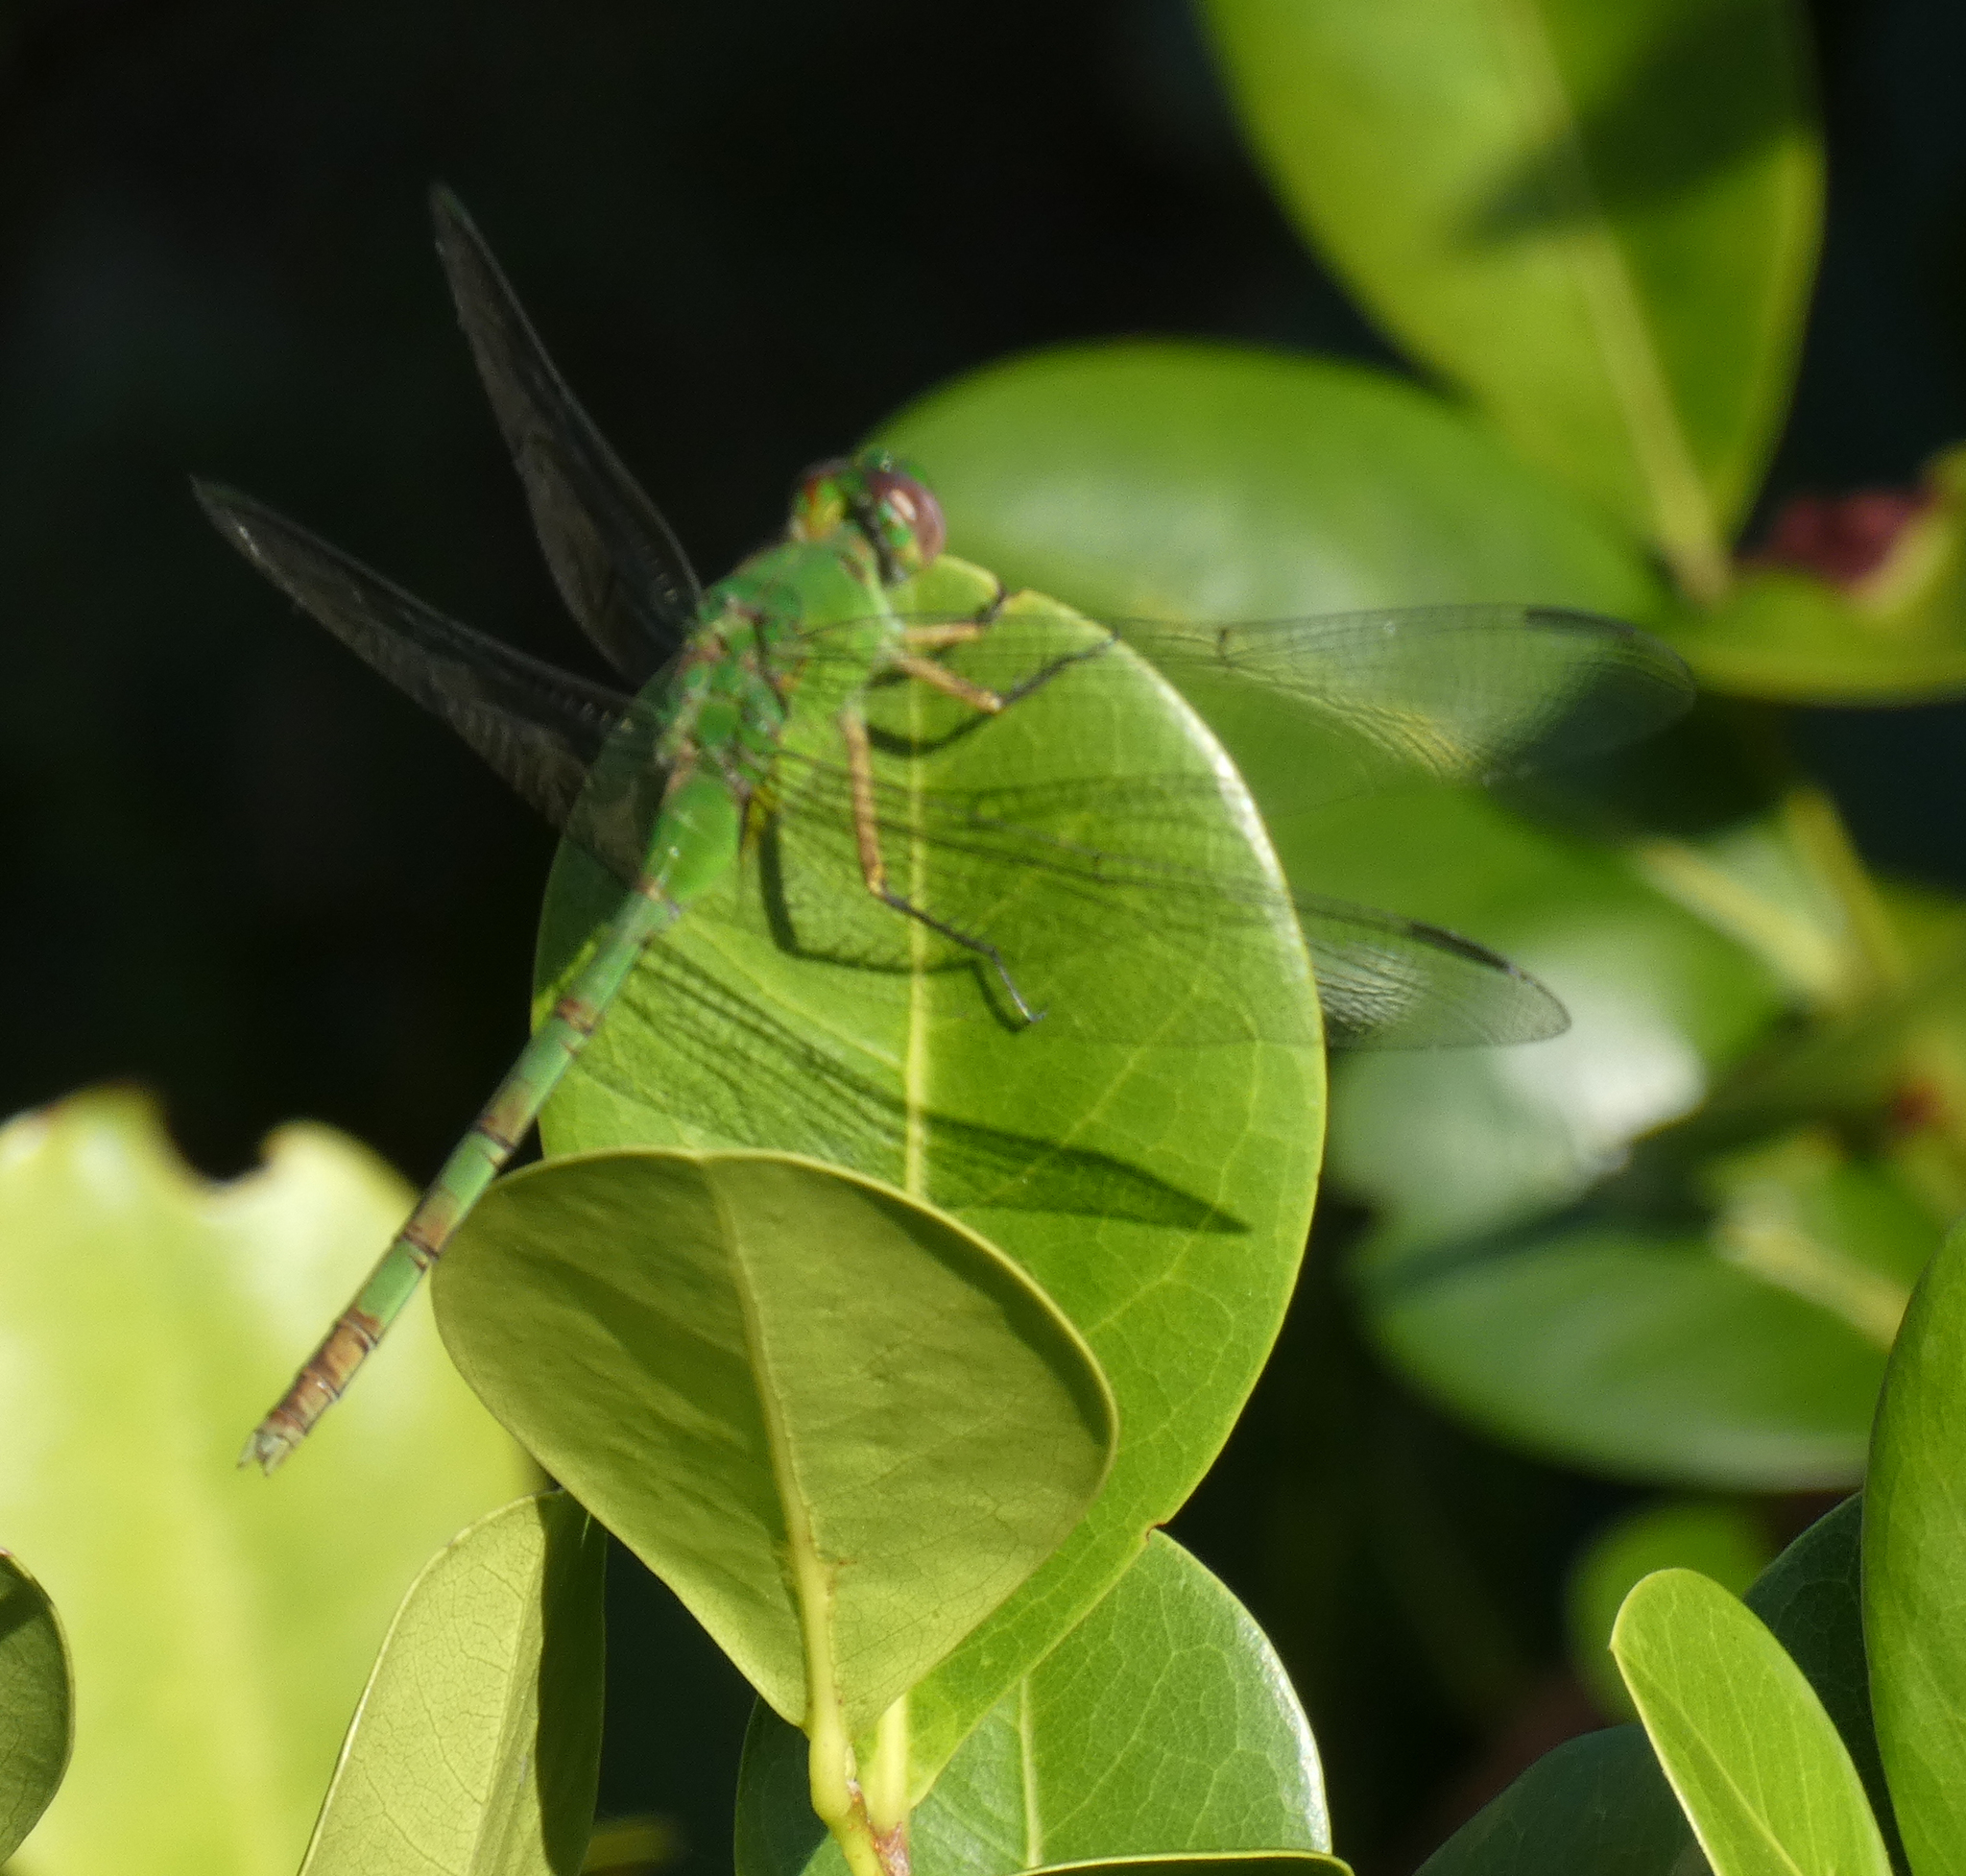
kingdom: Animalia
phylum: Arthropoda
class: Insecta
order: Odonata
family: Libellulidae
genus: Erythemis
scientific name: Erythemis vesiculosa
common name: Great pondhawk
